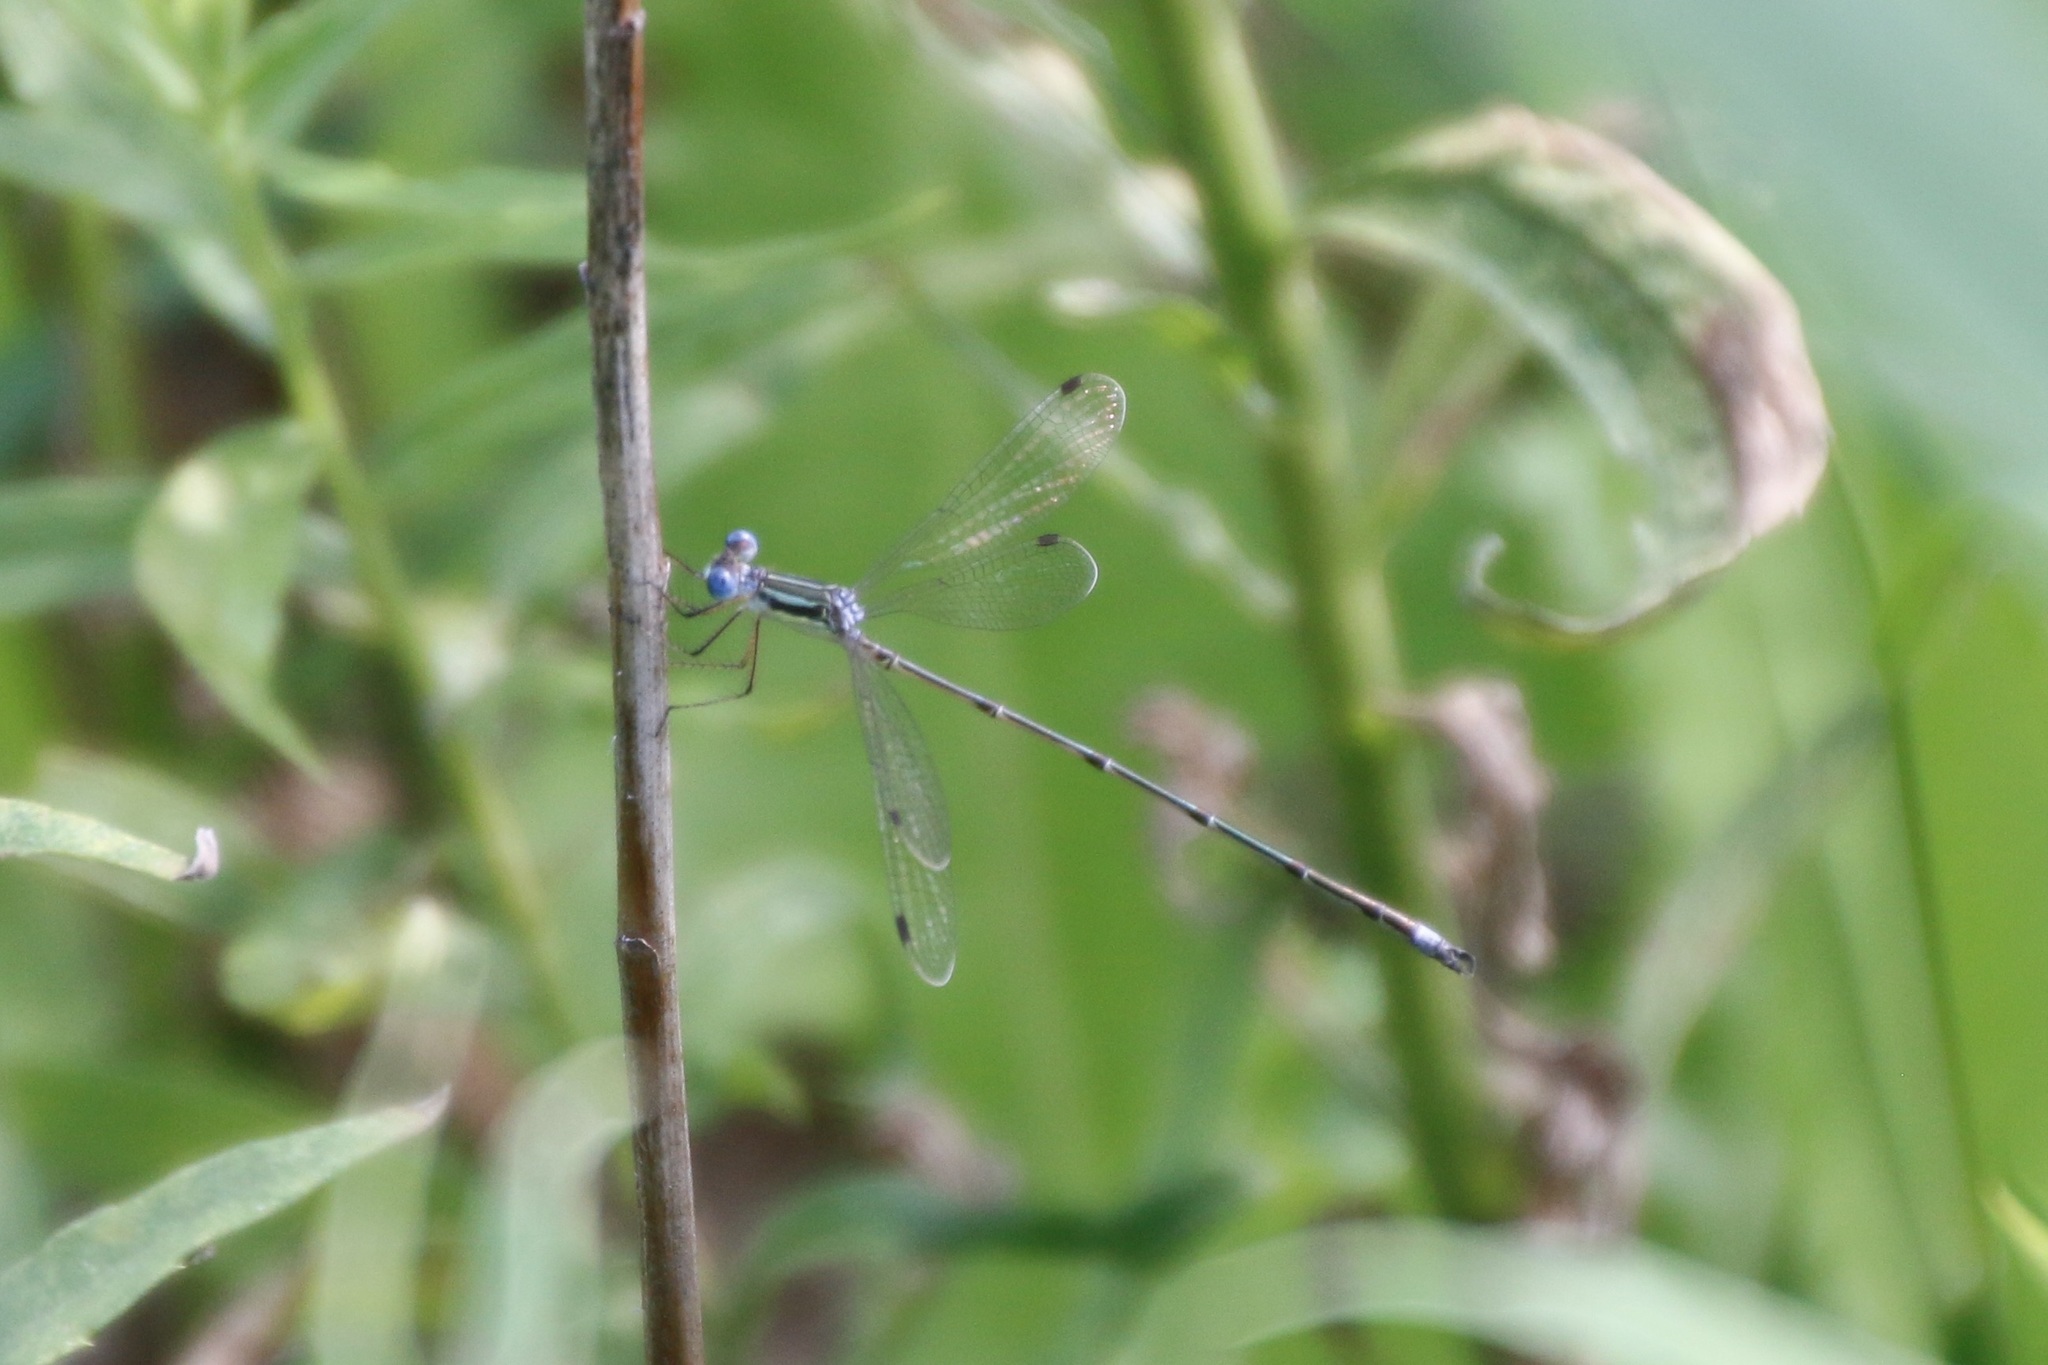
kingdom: Animalia
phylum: Arthropoda
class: Insecta
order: Odonata
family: Lestidae
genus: Lestes
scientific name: Lestes rectangularis
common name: Slender spreadwing
